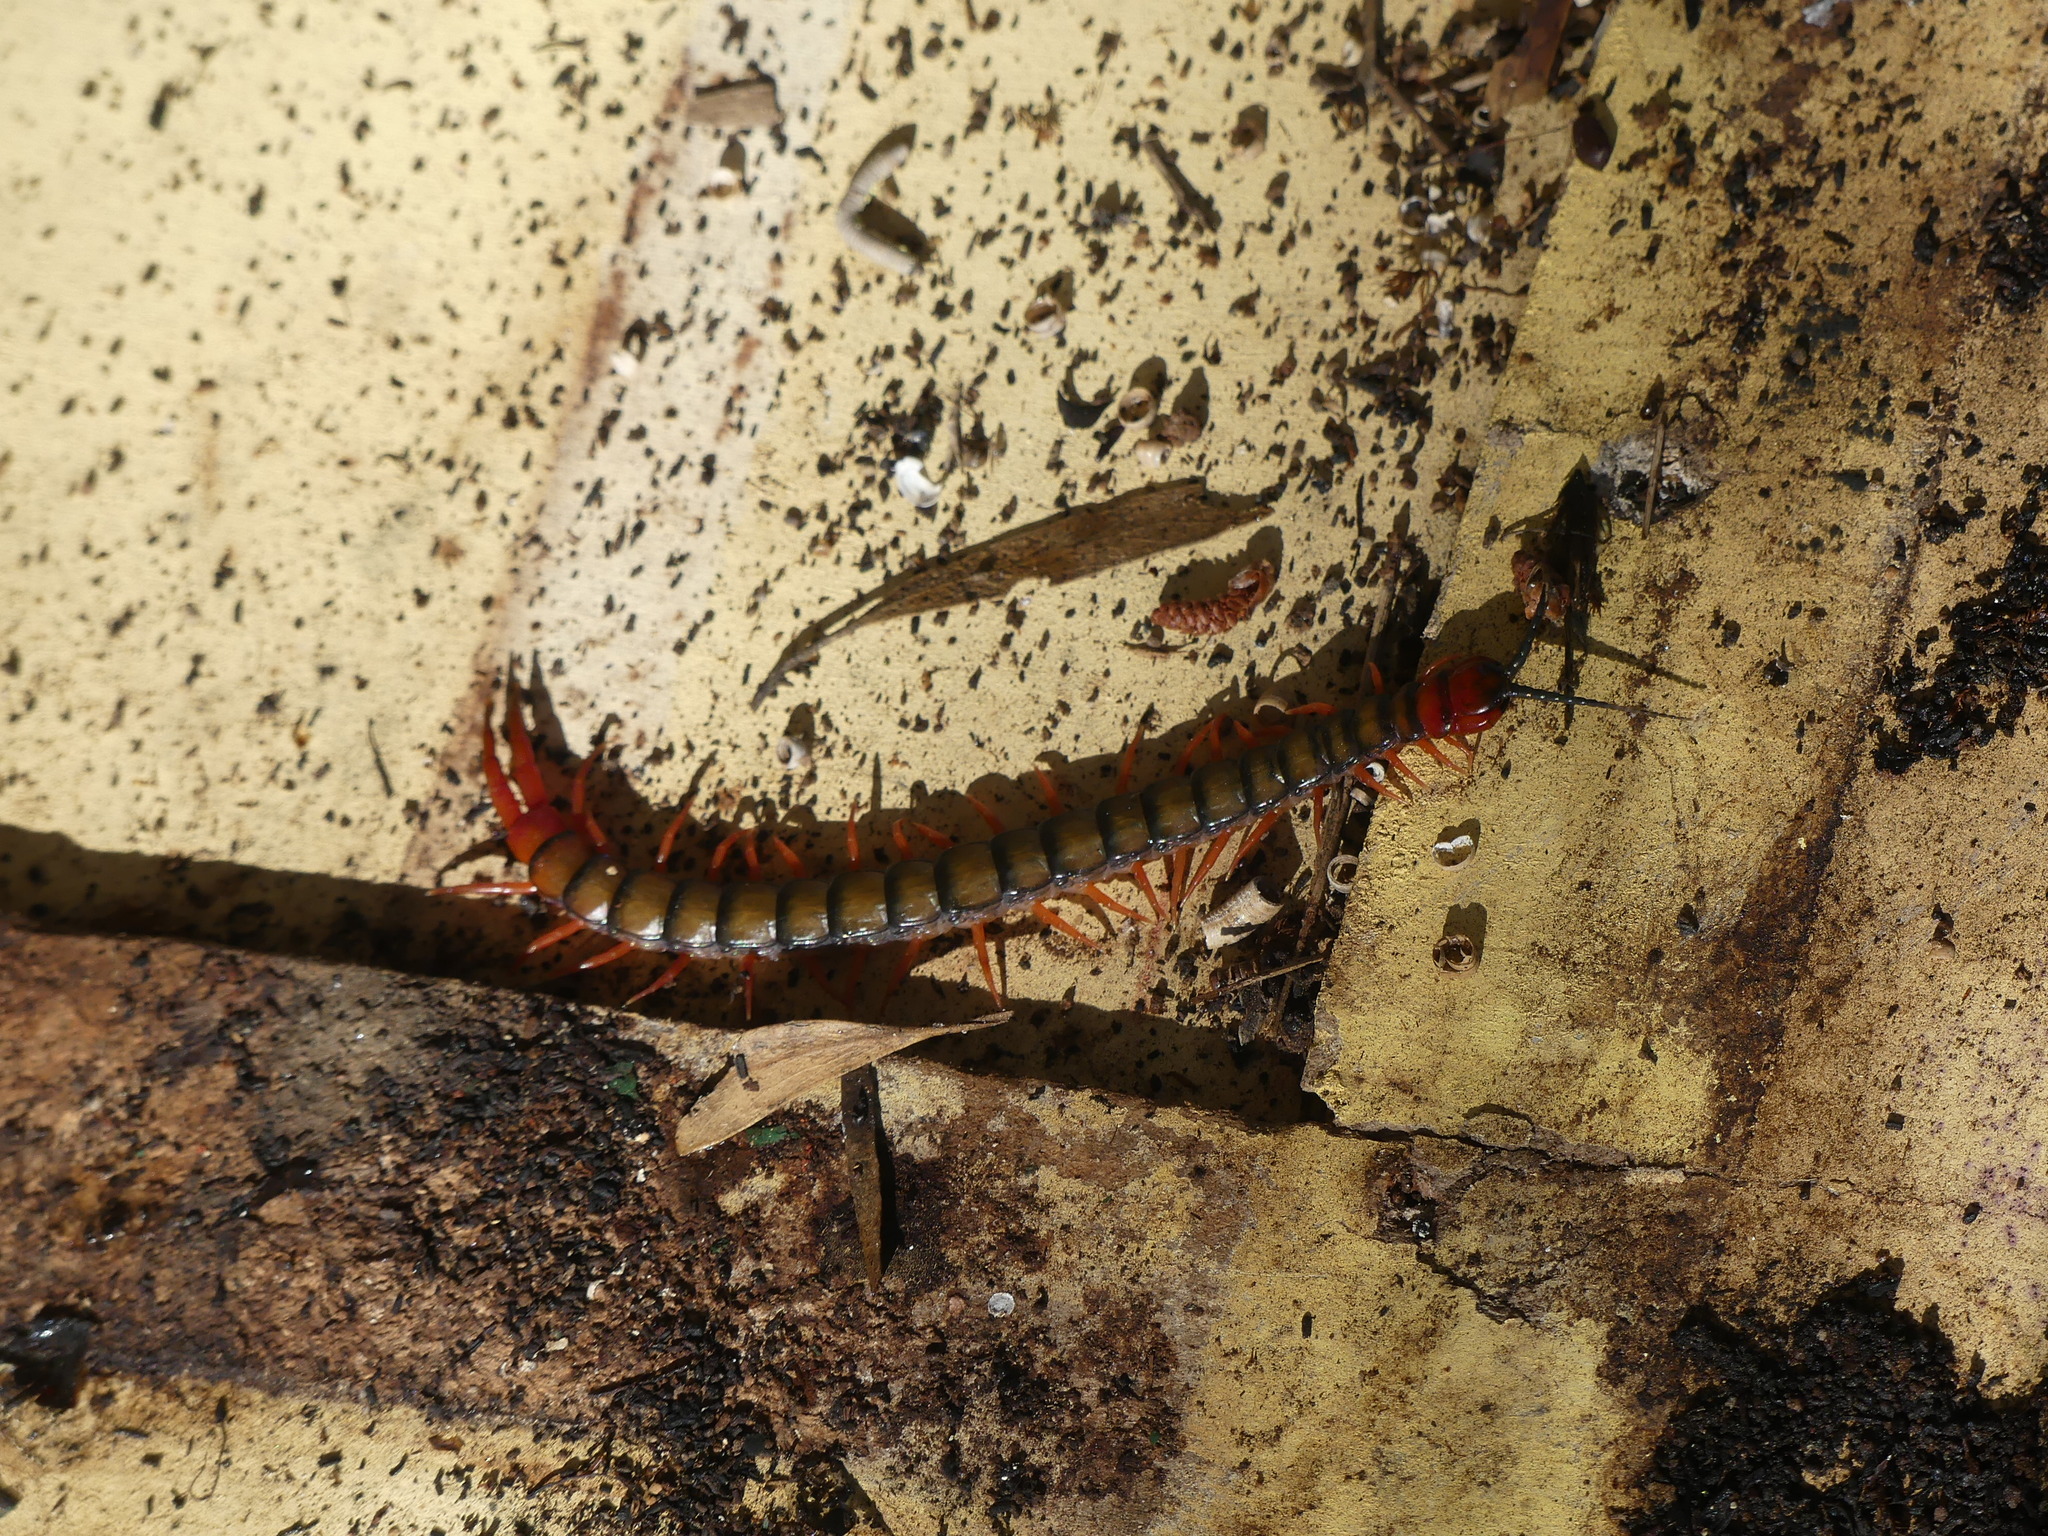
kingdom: Animalia
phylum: Arthropoda
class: Chilopoda
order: Scolopendromorpha
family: Scolopendridae
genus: Cormocephalus
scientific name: Cormocephalus aurantiipes
